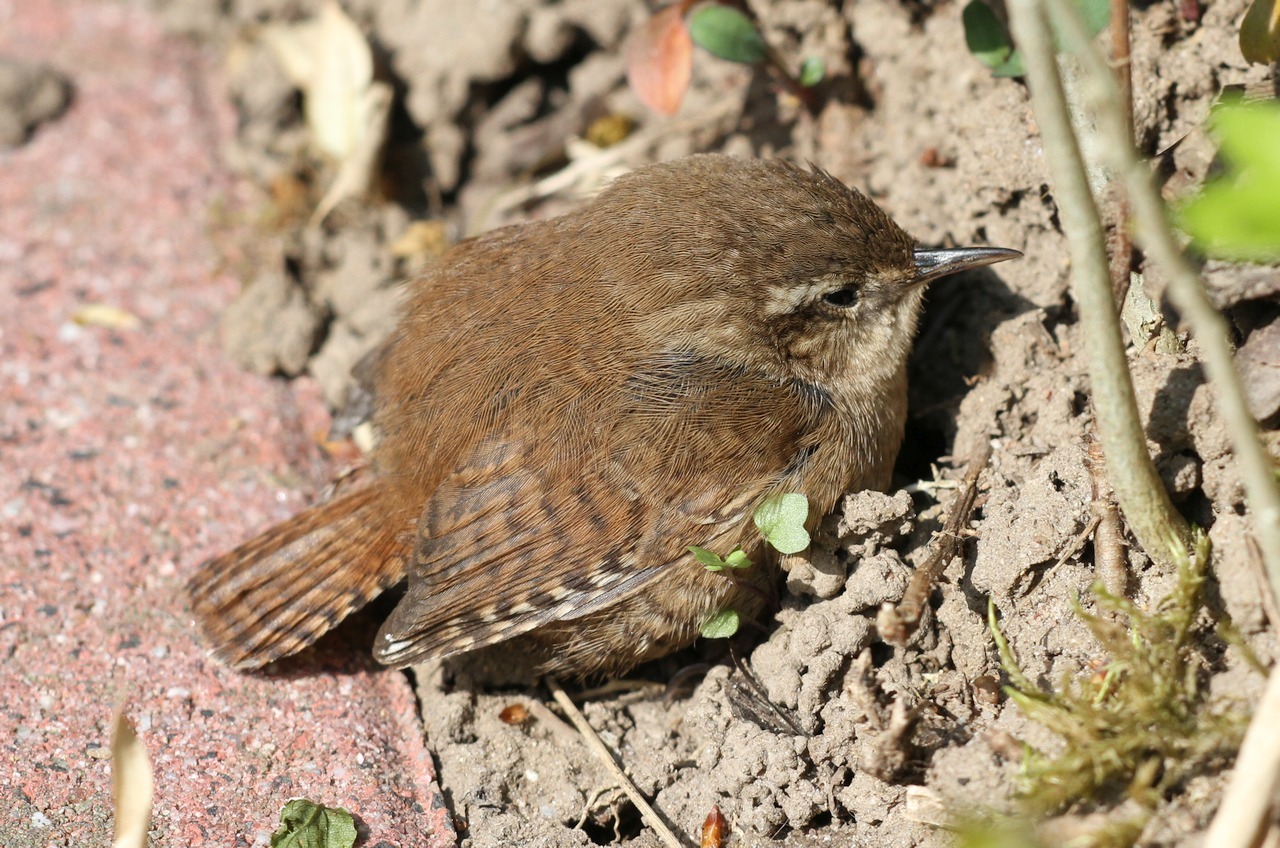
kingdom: Animalia
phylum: Chordata
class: Aves
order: Passeriformes
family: Troglodytidae
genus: Troglodytes
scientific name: Troglodytes troglodytes
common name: Eurasian wren
